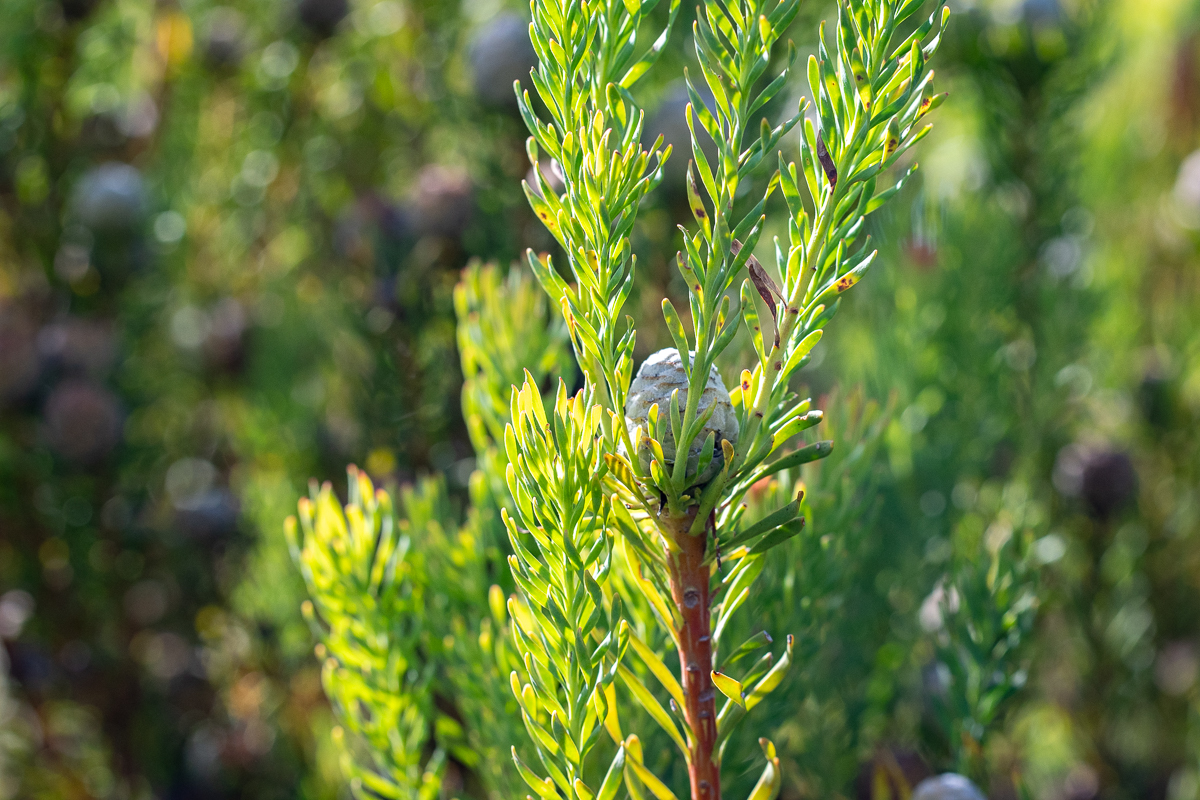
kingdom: Plantae
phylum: Tracheophyta
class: Magnoliopsida
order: Proteales
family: Proteaceae
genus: Leucadendron
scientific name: Leucadendron linifolium
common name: Line-leaf conebush
